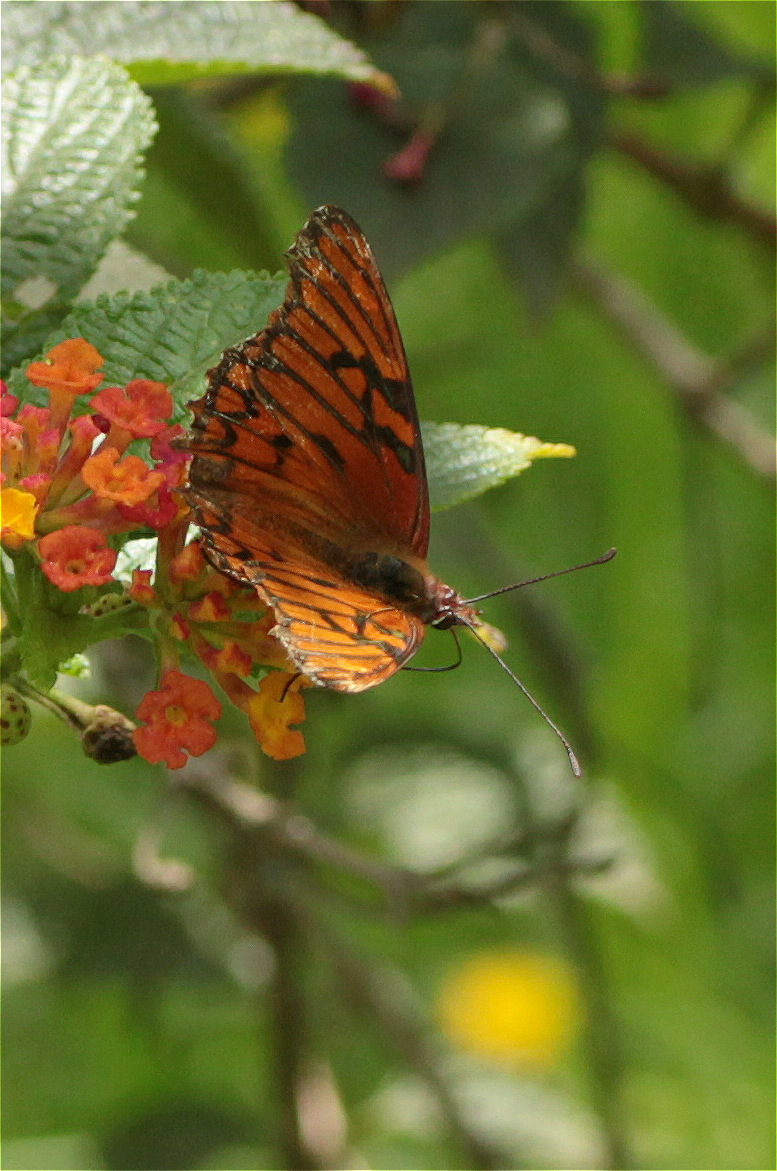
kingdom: Animalia
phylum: Arthropoda
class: Insecta
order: Lepidoptera
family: Nymphalidae
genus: Dione
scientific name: Dione glycera
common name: Andean silverspot
